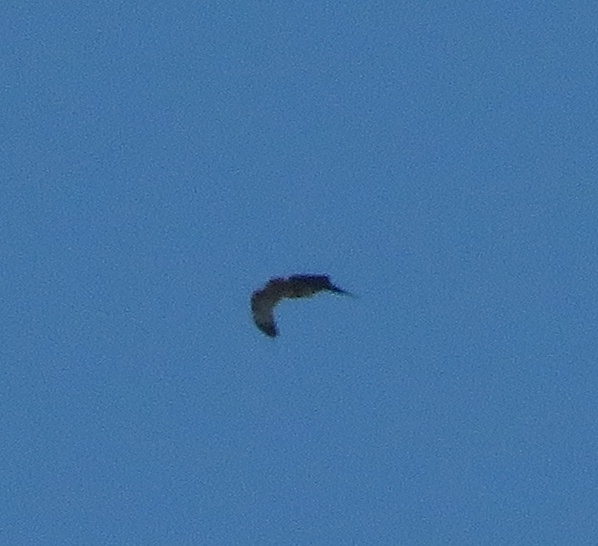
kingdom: Animalia
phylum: Chordata
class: Aves
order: Accipitriformes
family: Accipitridae
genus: Geranoaetus
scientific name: Geranoaetus melanoleucus
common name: Black-chested buzzard-eagle
